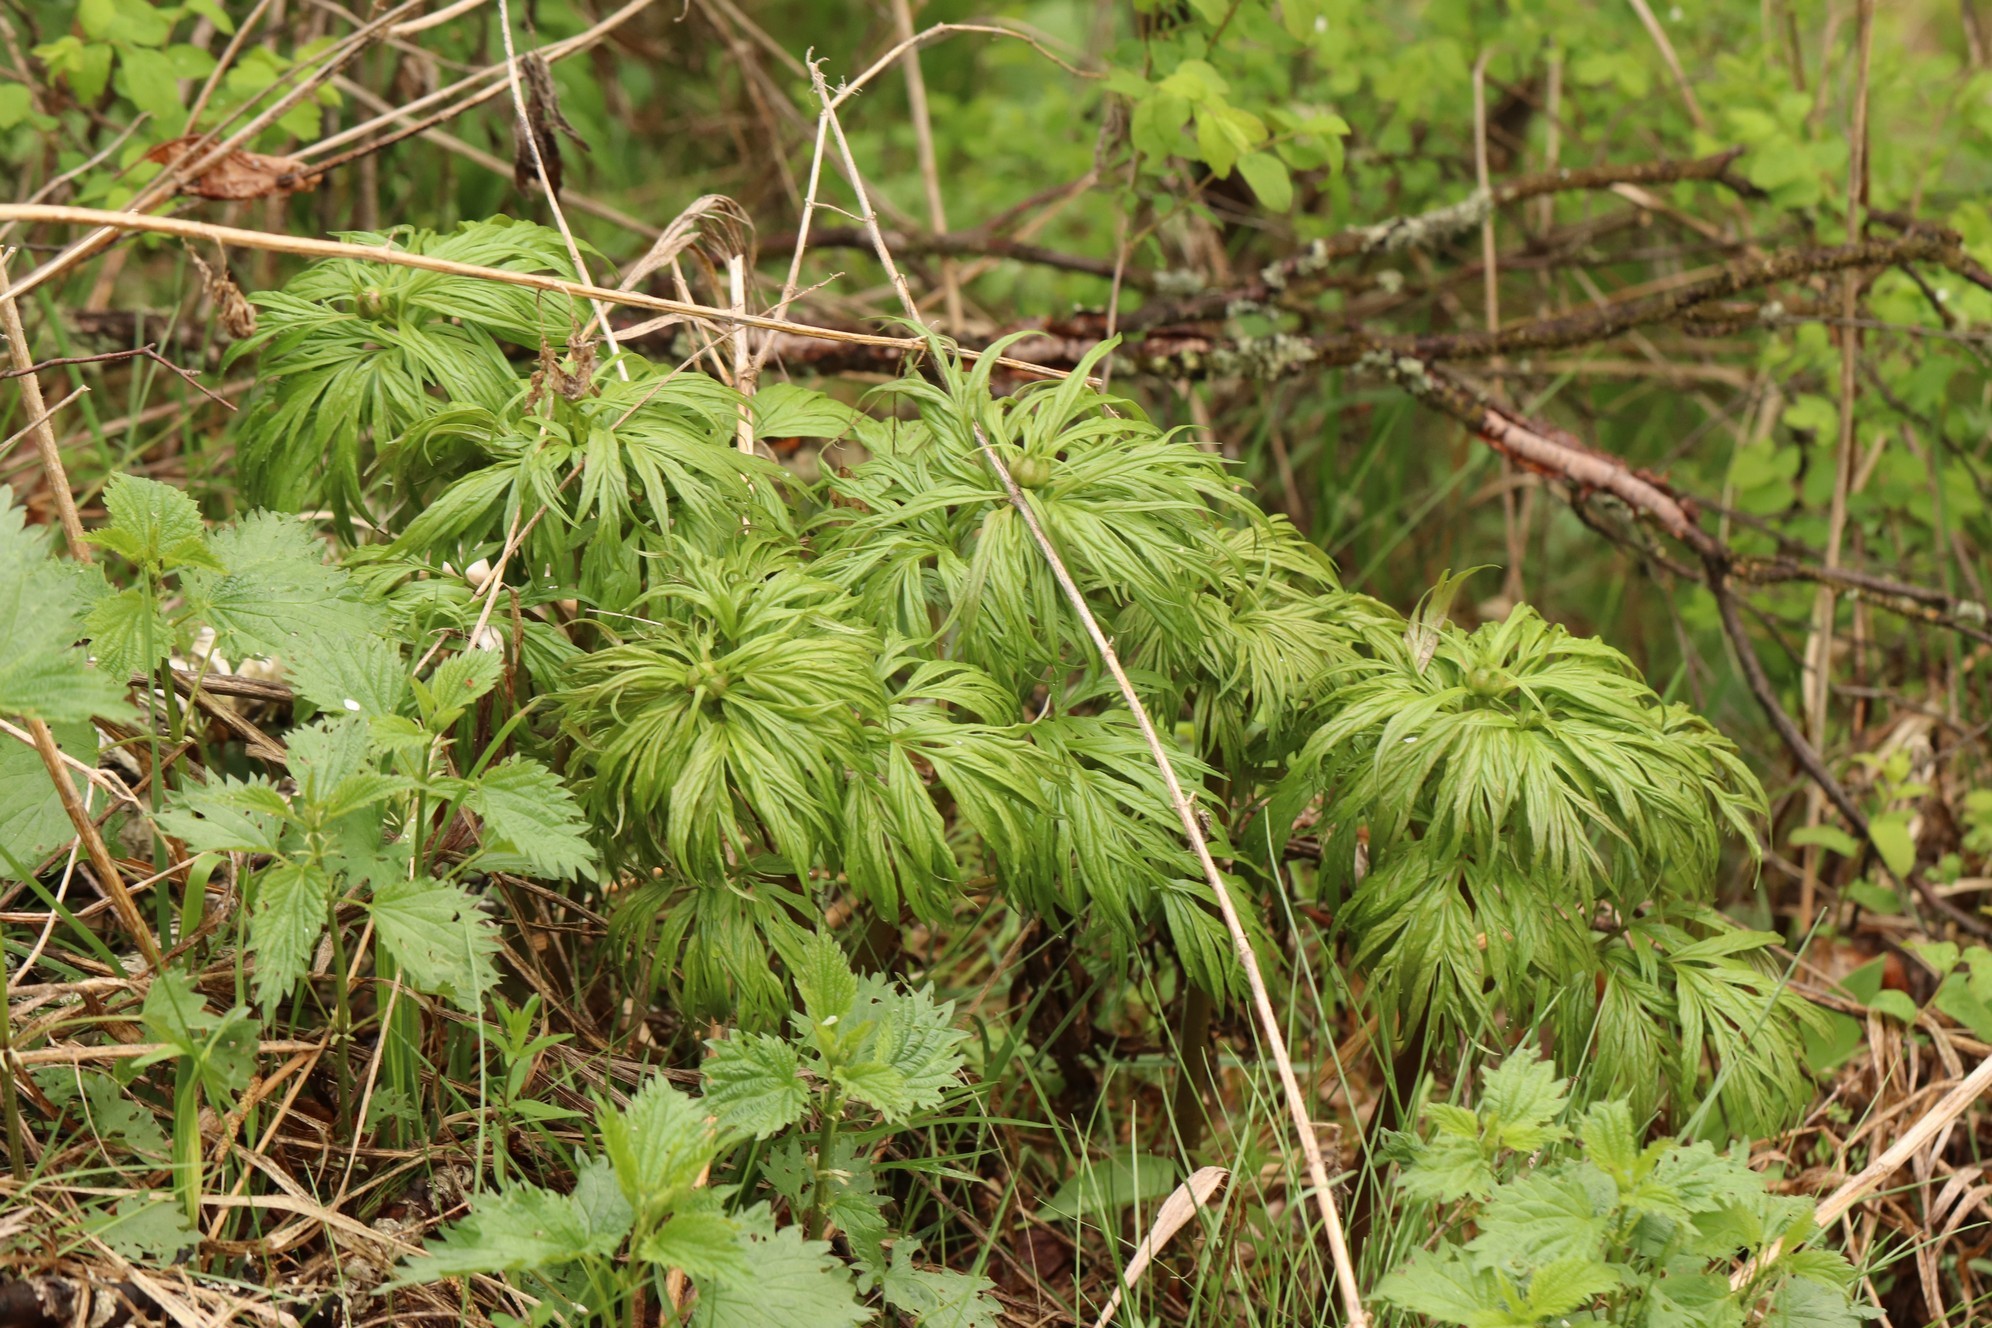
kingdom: Plantae
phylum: Tracheophyta
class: Magnoliopsida
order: Saxifragales
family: Paeoniaceae
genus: Paeonia
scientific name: Paeonia anomala
